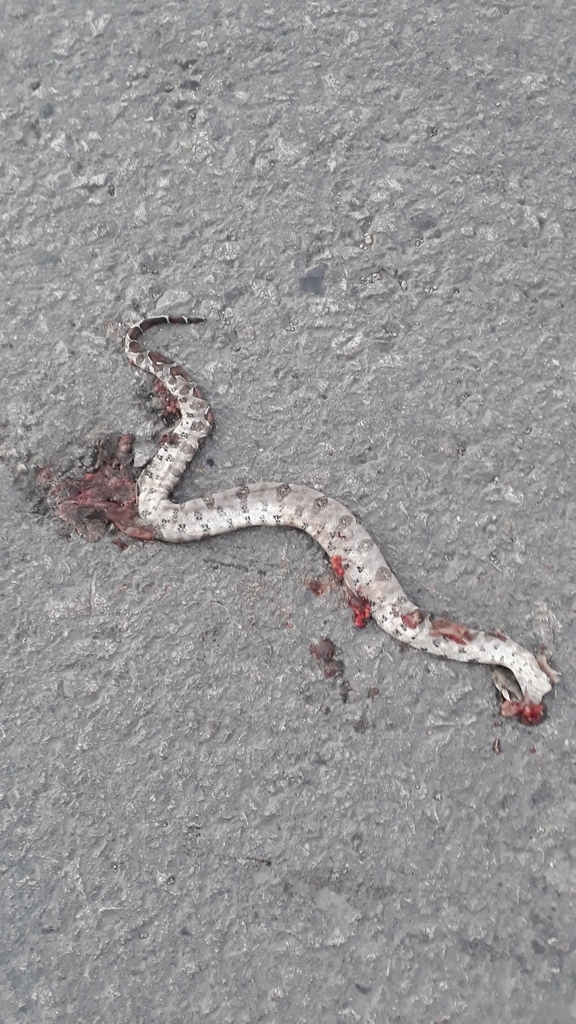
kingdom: Animalia
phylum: Chordata
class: Squamata
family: Boidae
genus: Boa
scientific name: Boa imperator
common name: Central american boa
